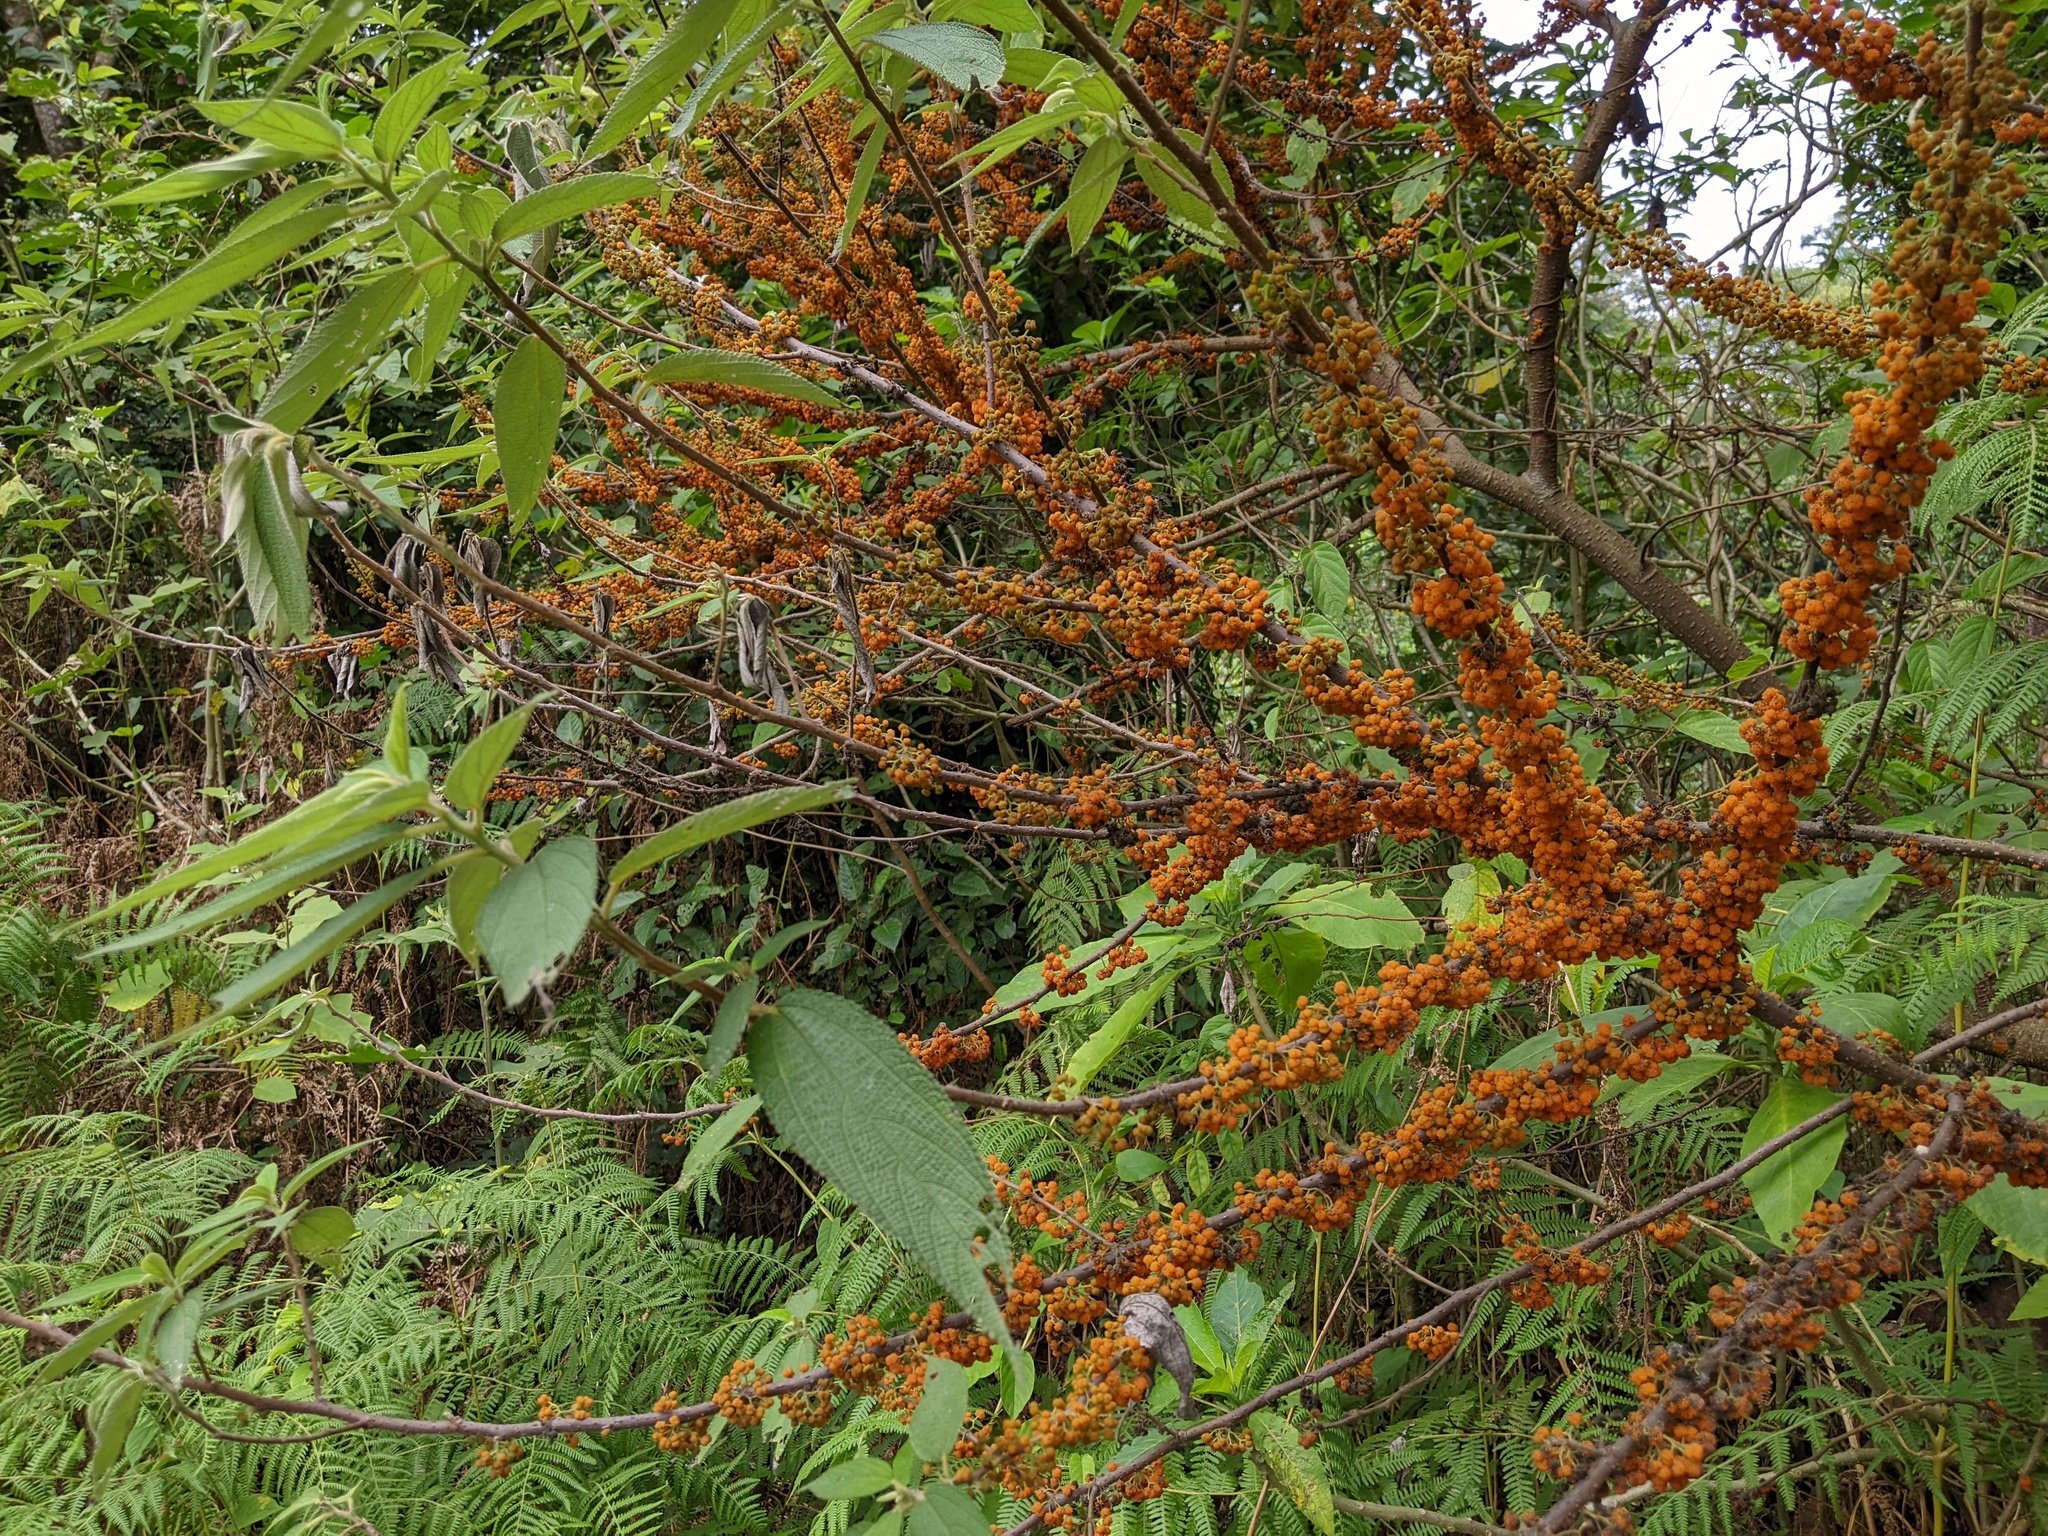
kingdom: Plantae
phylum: Tracheophyta
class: Magnoliopsida
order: Rosales
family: Urticaceae
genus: Debregeasia
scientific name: Debregeasia longifolia
